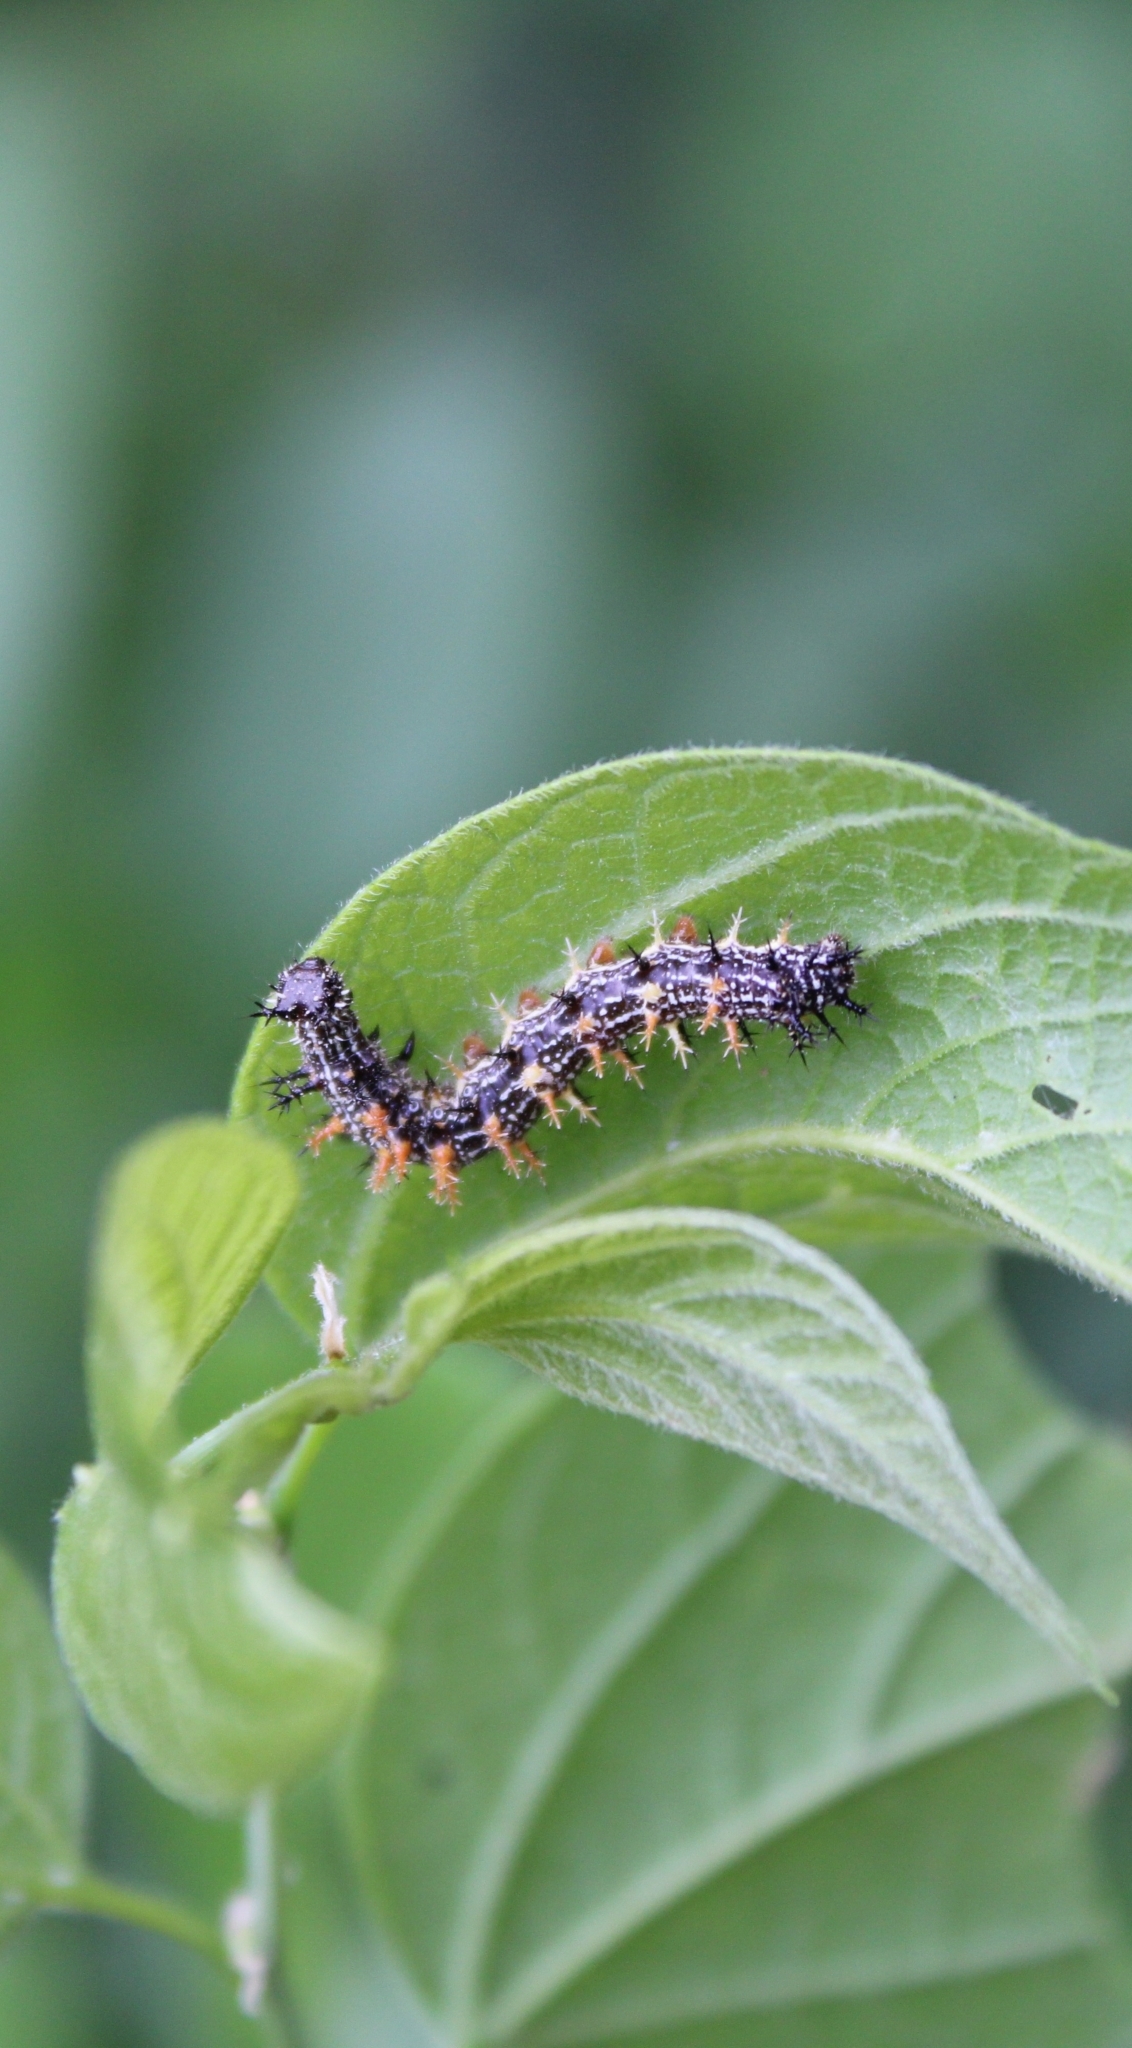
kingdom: Animalia
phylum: Arthropoda
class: Insecta
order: Lepidoptera
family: Nymphalidae
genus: Polygonia
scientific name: Polygonia interrogationis
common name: Question mark
